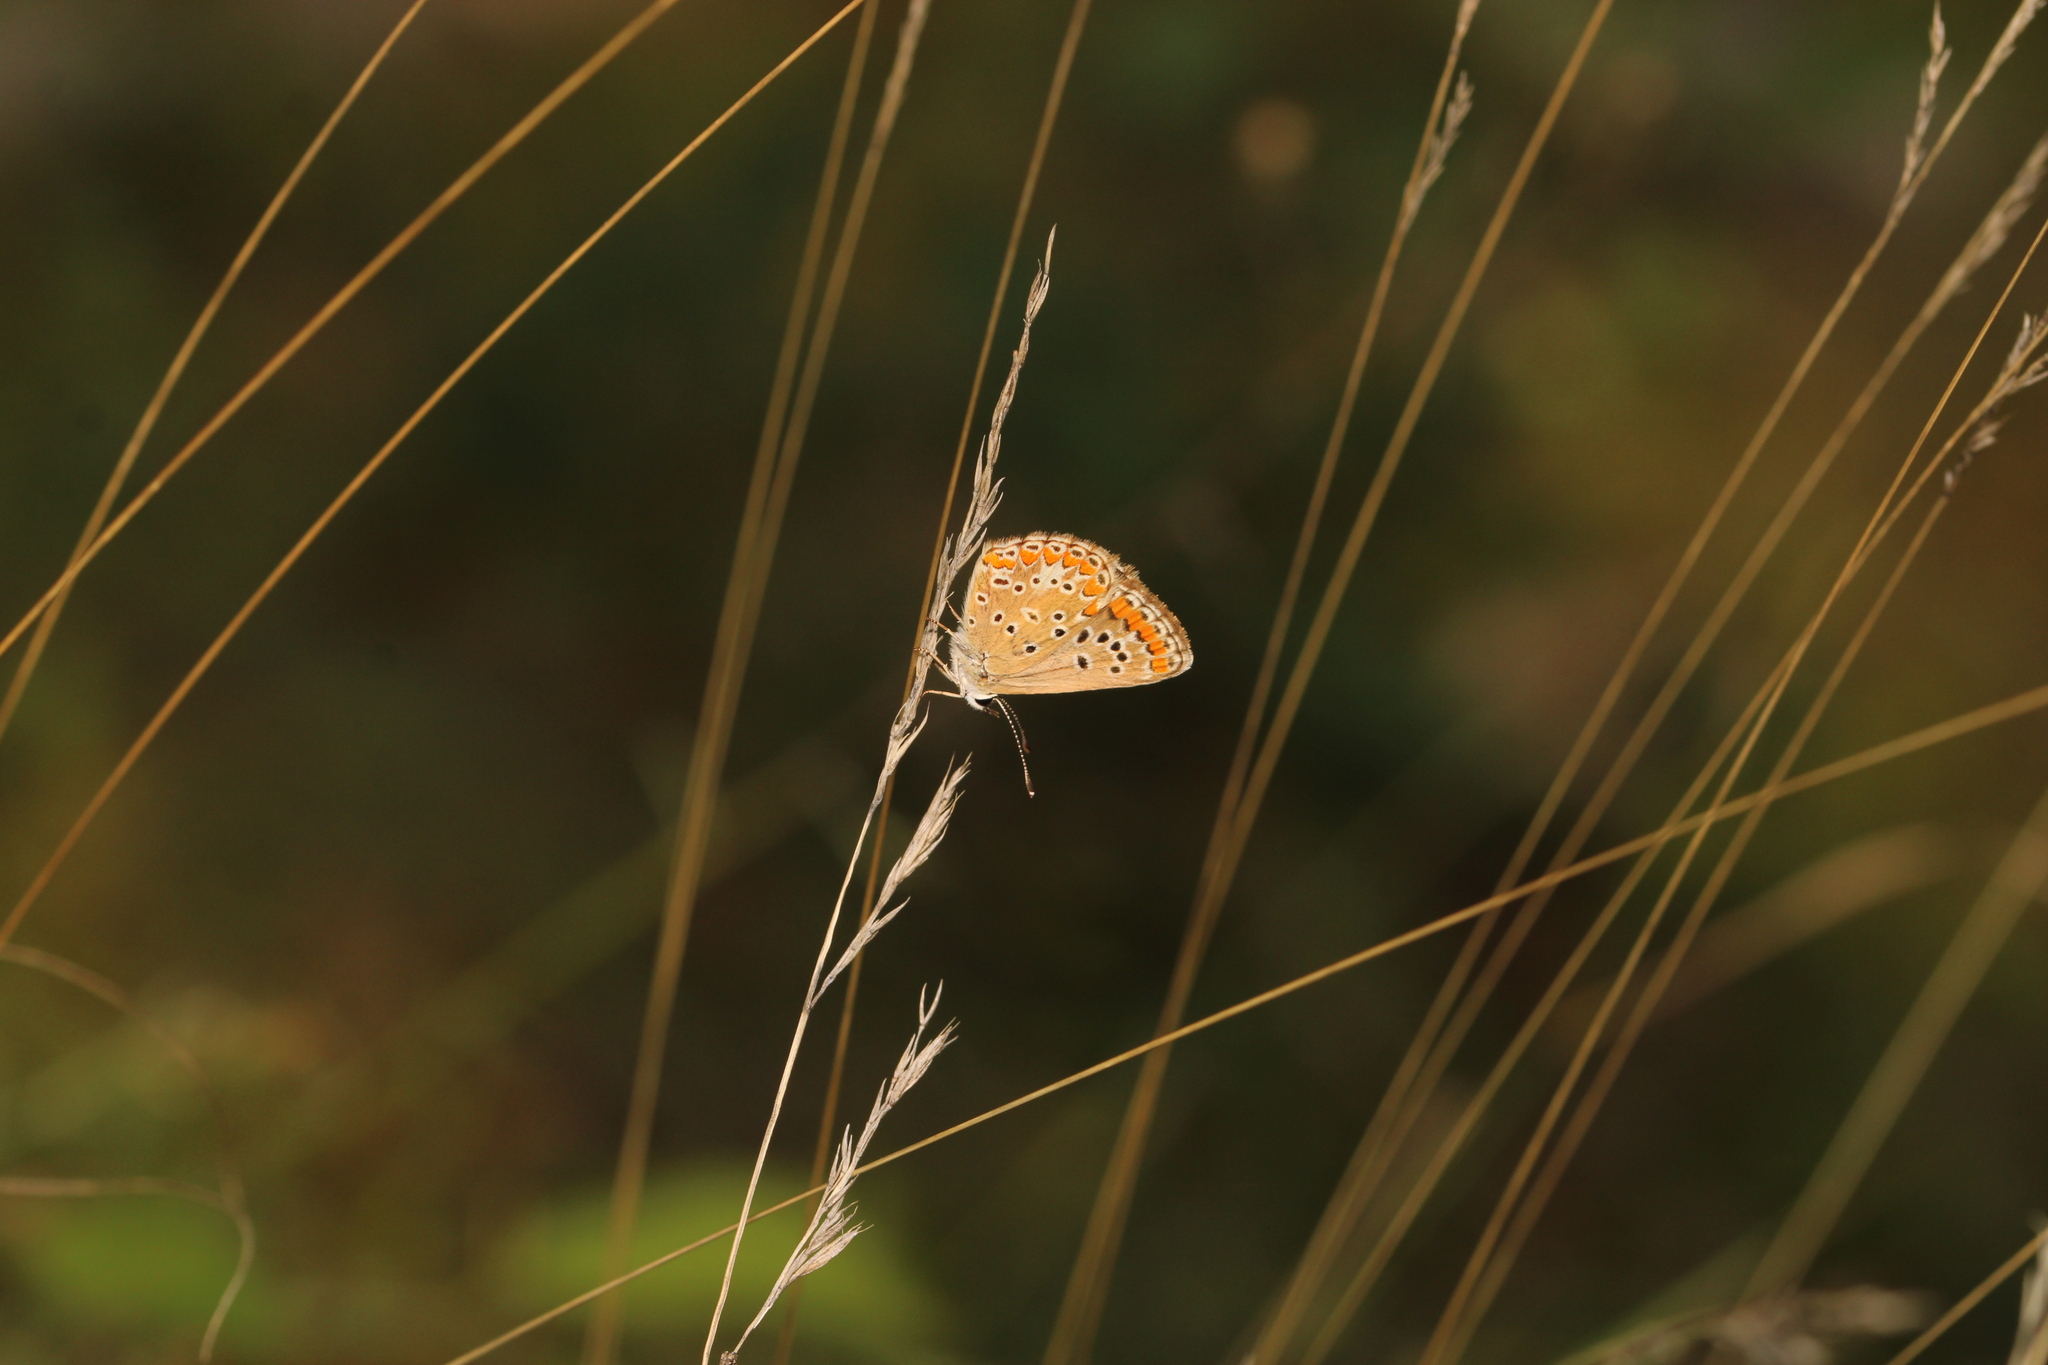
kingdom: Animalia
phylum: Arthropoda
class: Insecta
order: Lepidoptera
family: Lycaenidae
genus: Aricia
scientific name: Aricia agestis
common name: Brown argus
